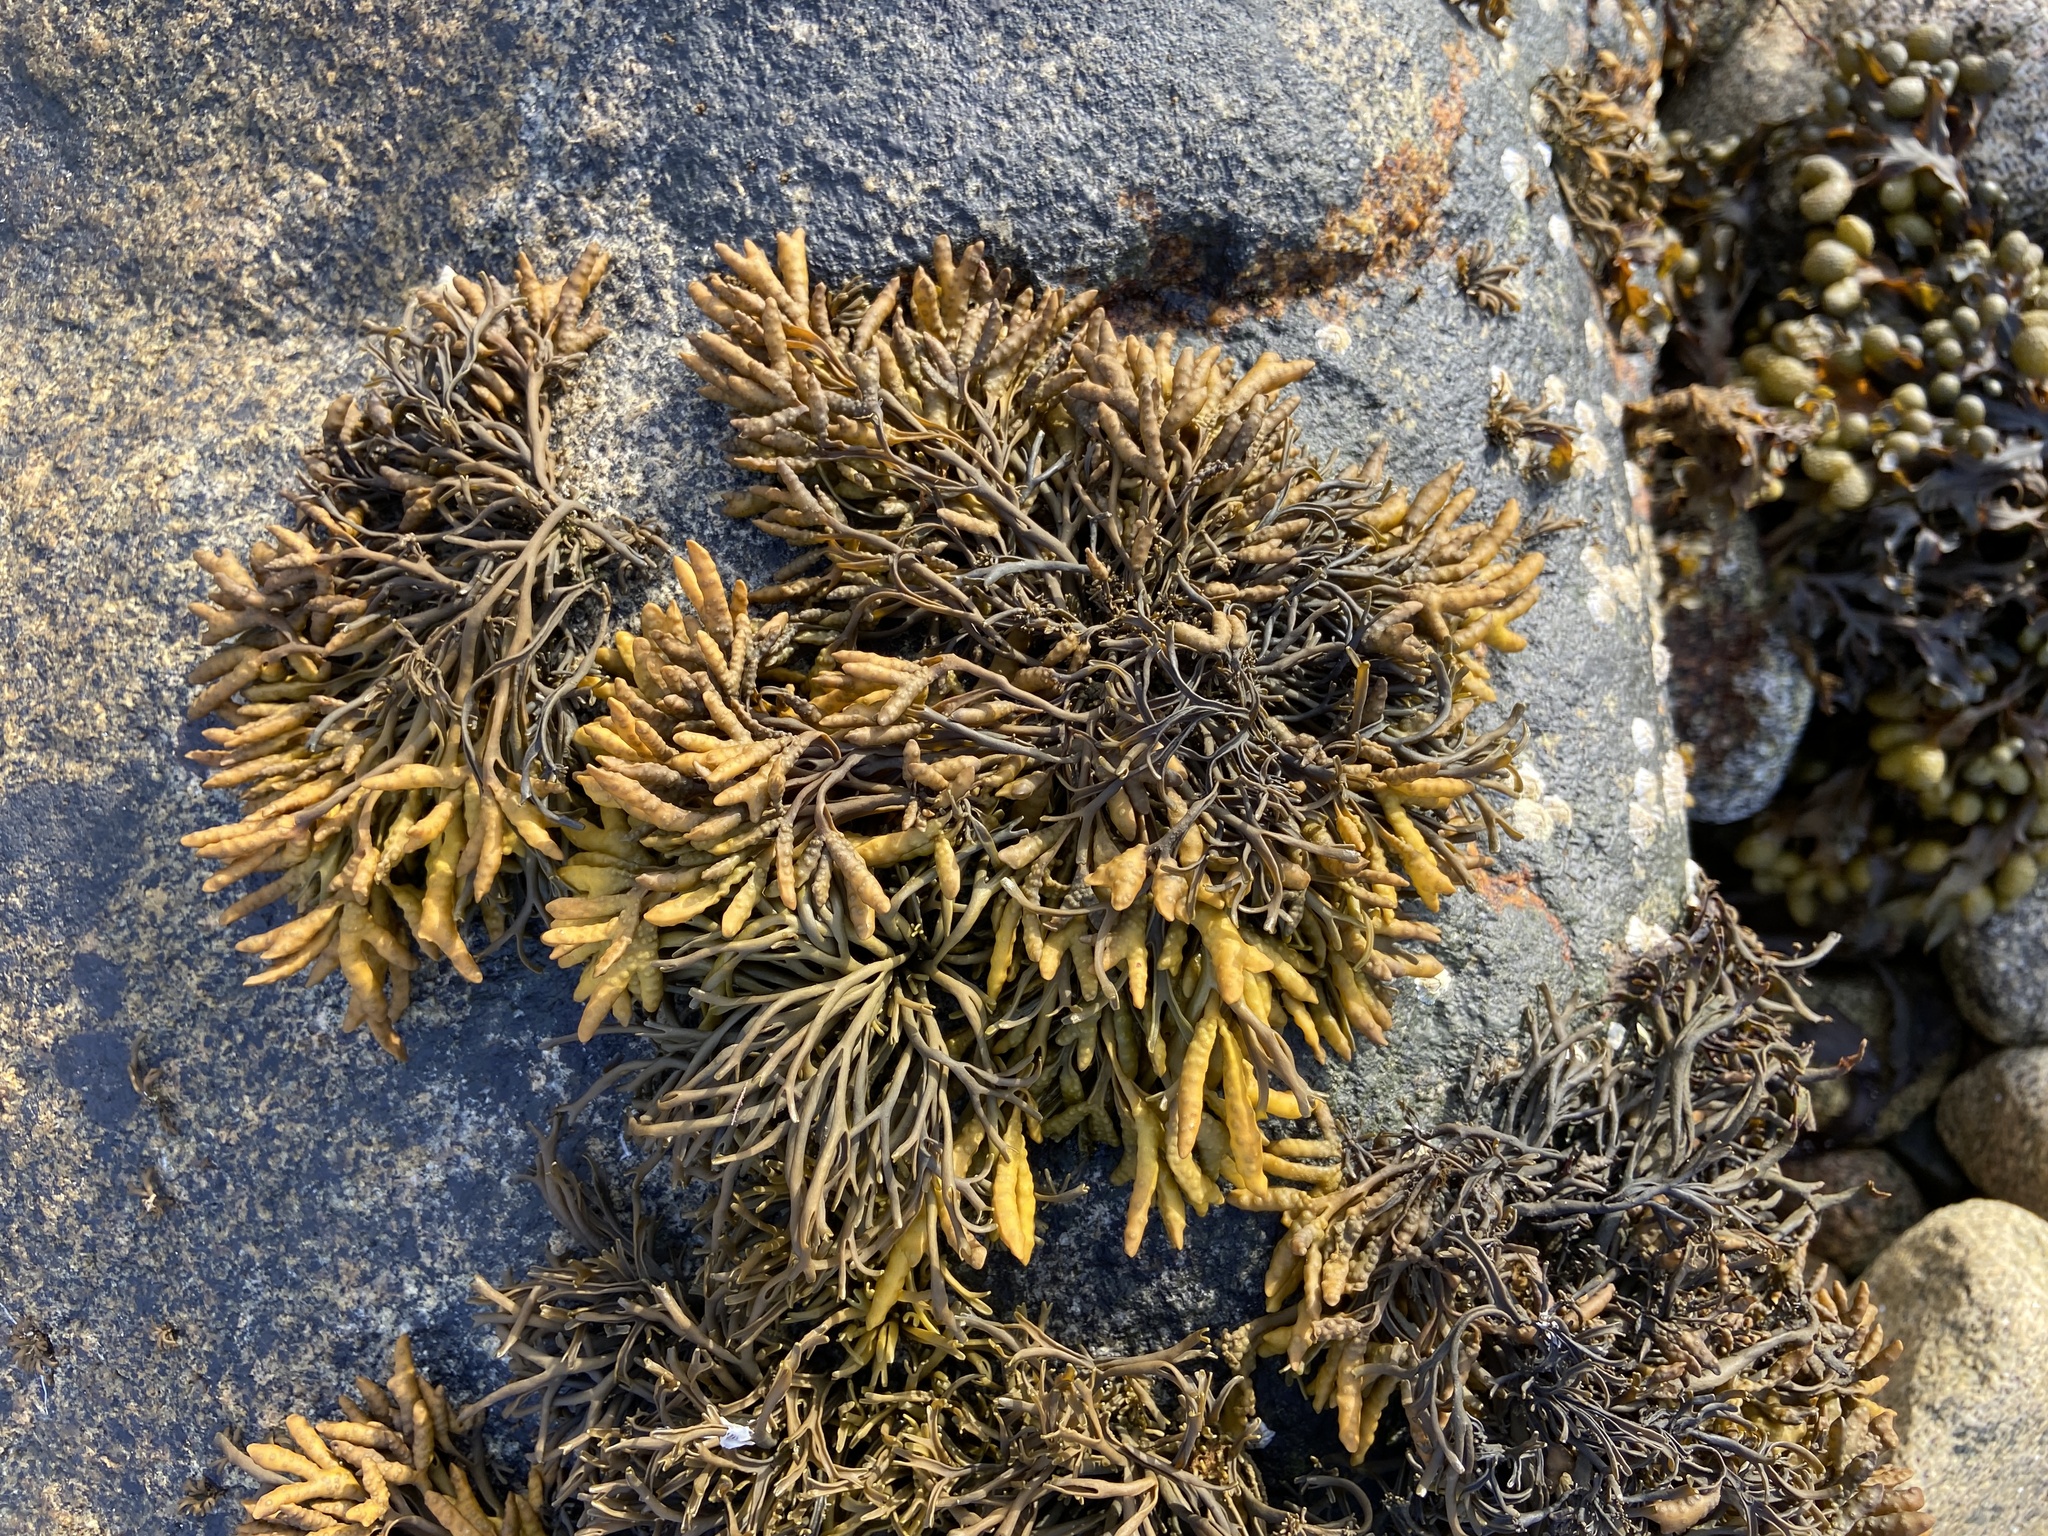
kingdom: Chromista
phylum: Ochrophyta
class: Phaeophyceae
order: Fucales
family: Fucaceae
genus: Pelvetia
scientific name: Pelvetia canaliculata
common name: Channelled wrack
